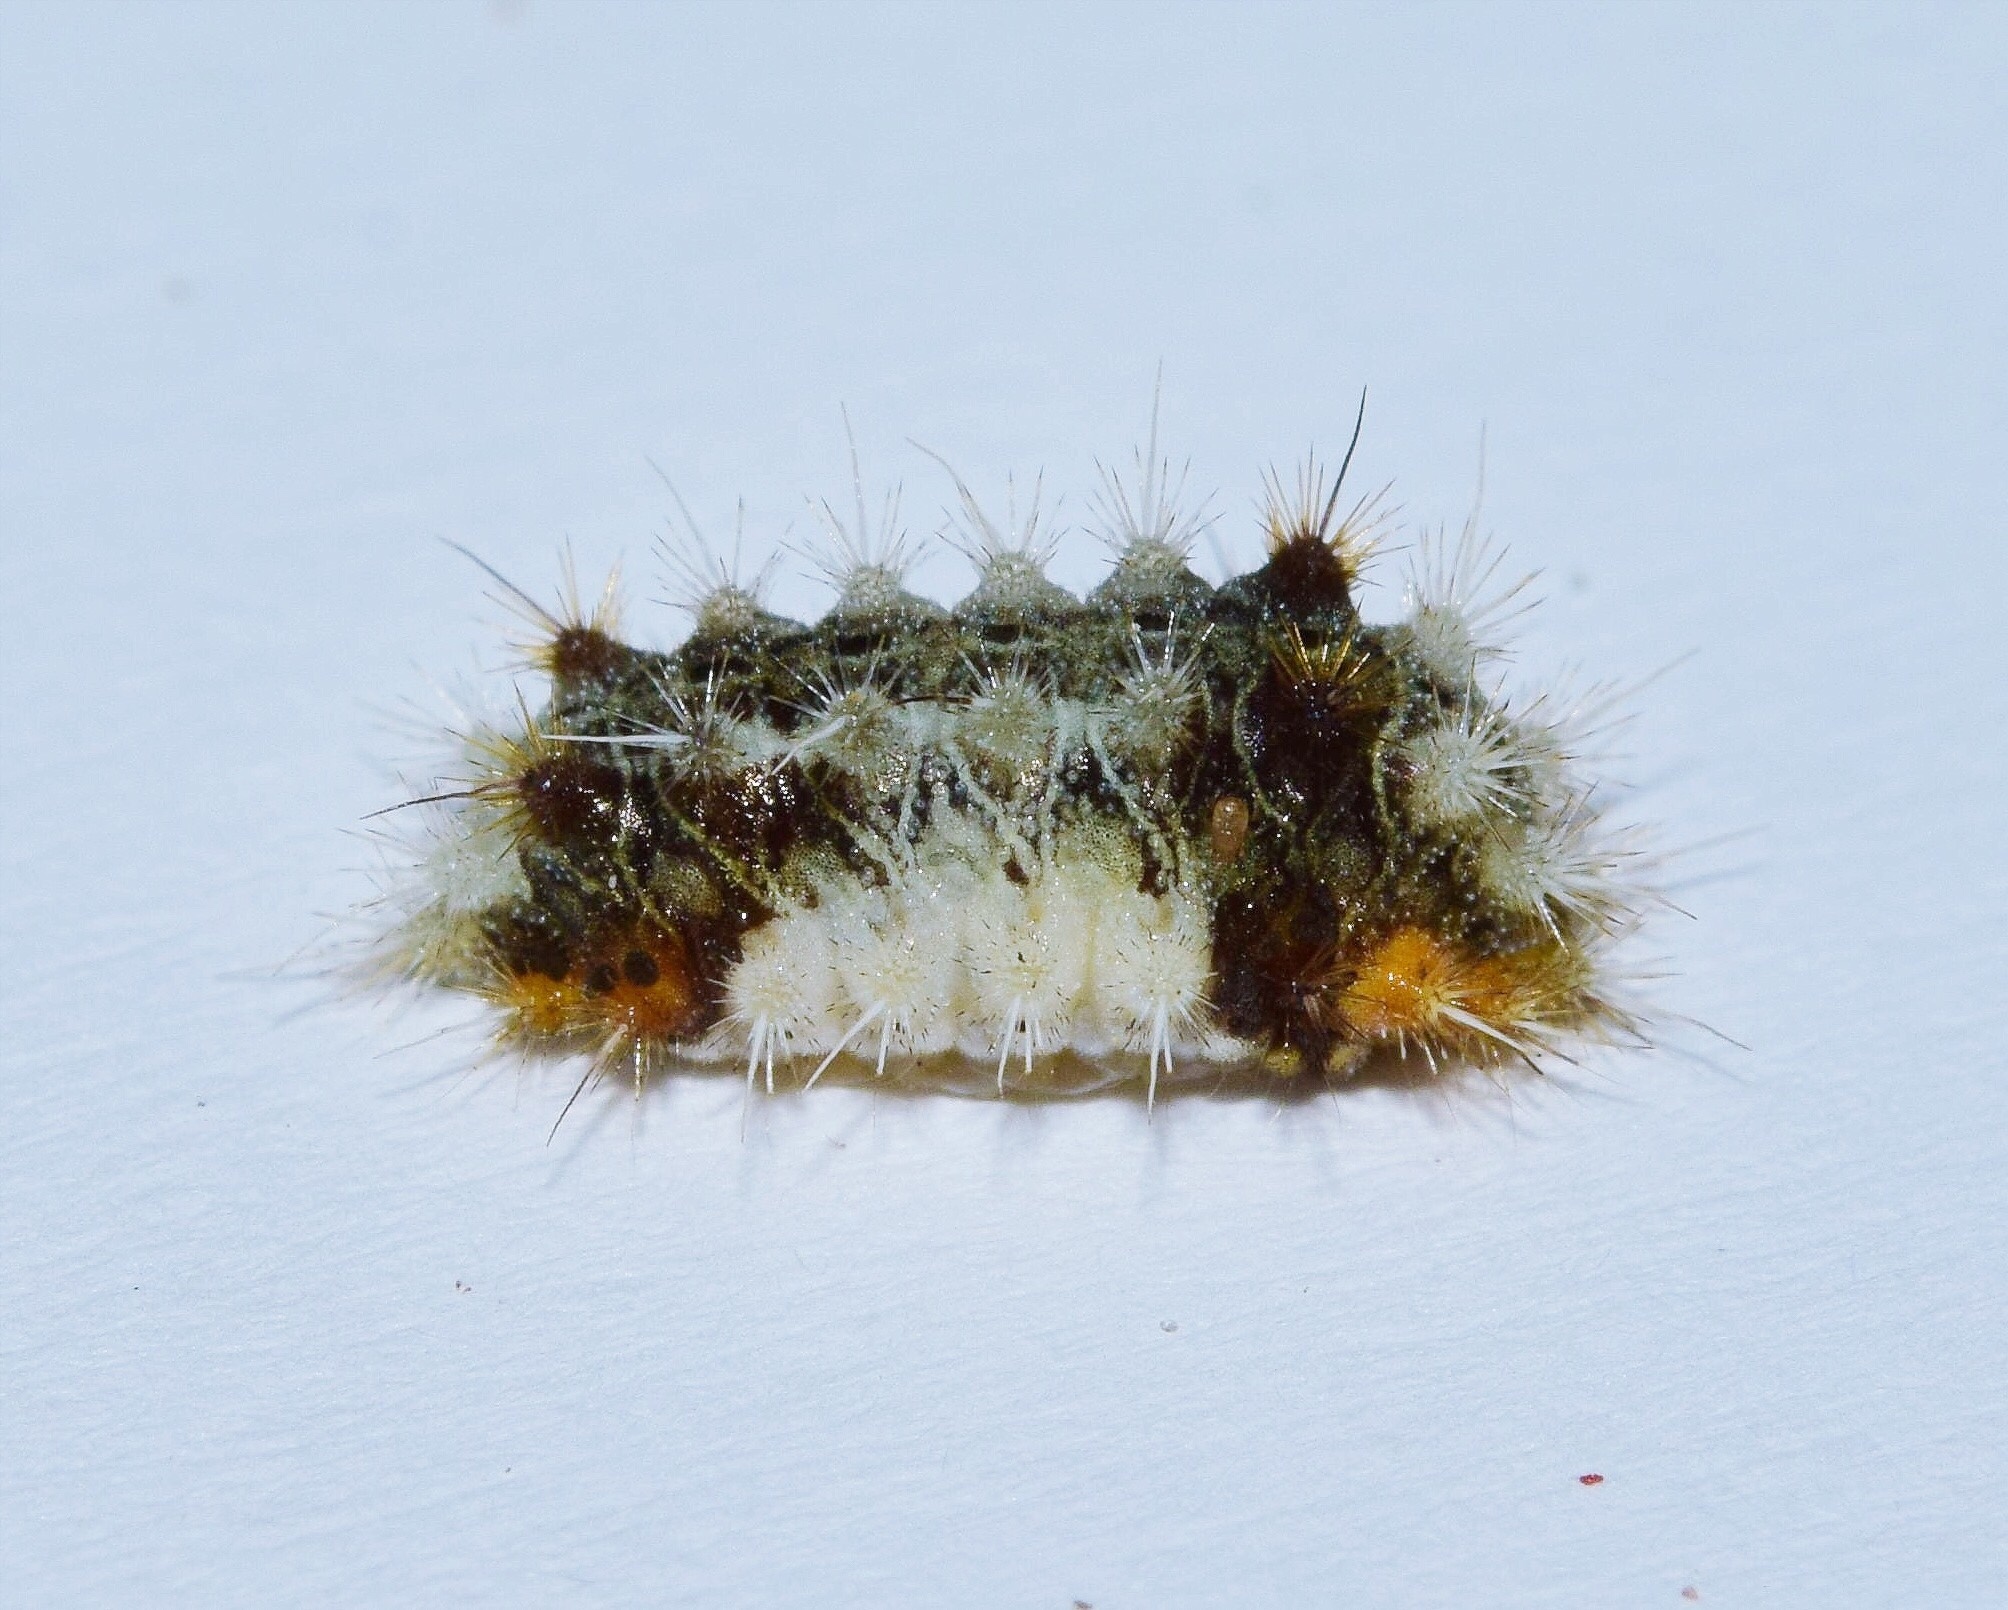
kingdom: Animalia
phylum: Arthropoda
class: Insecta
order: Lepidoptera
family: Limacodidae
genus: Halseyia
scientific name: Halseyia biumbrata
